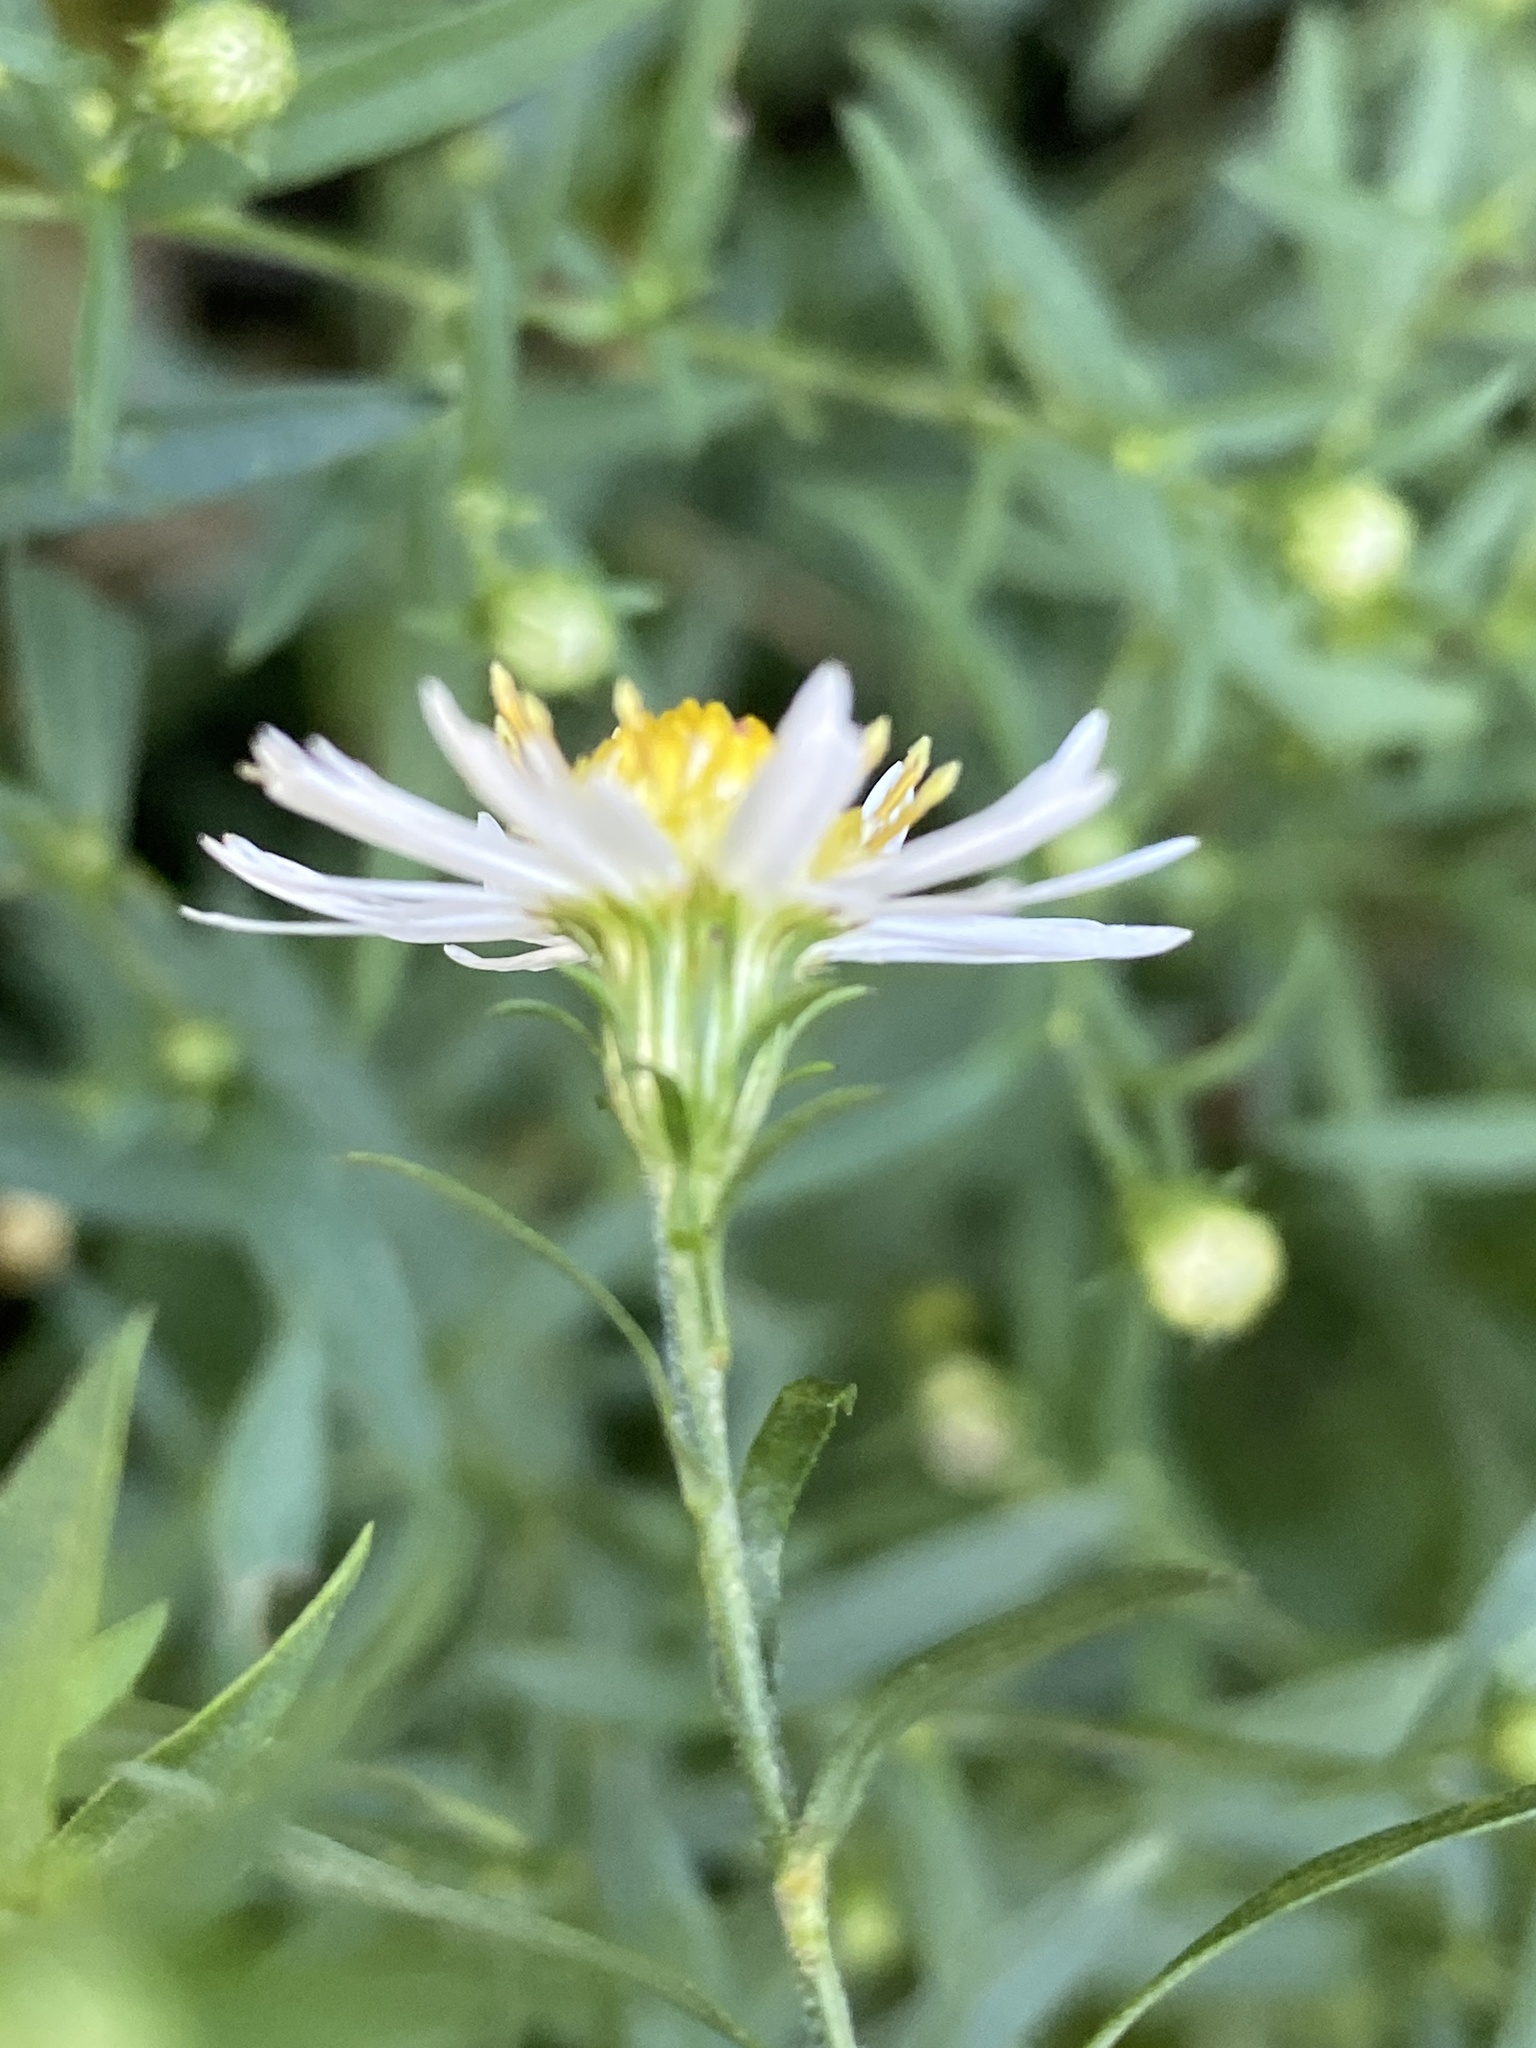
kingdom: Plantae
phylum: Tracheophyta
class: Magnoliopsida
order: Asterales
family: Asteraceae
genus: Symphyotrichum
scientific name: Symphyotrichum lanceolatum
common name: Panicled aster
